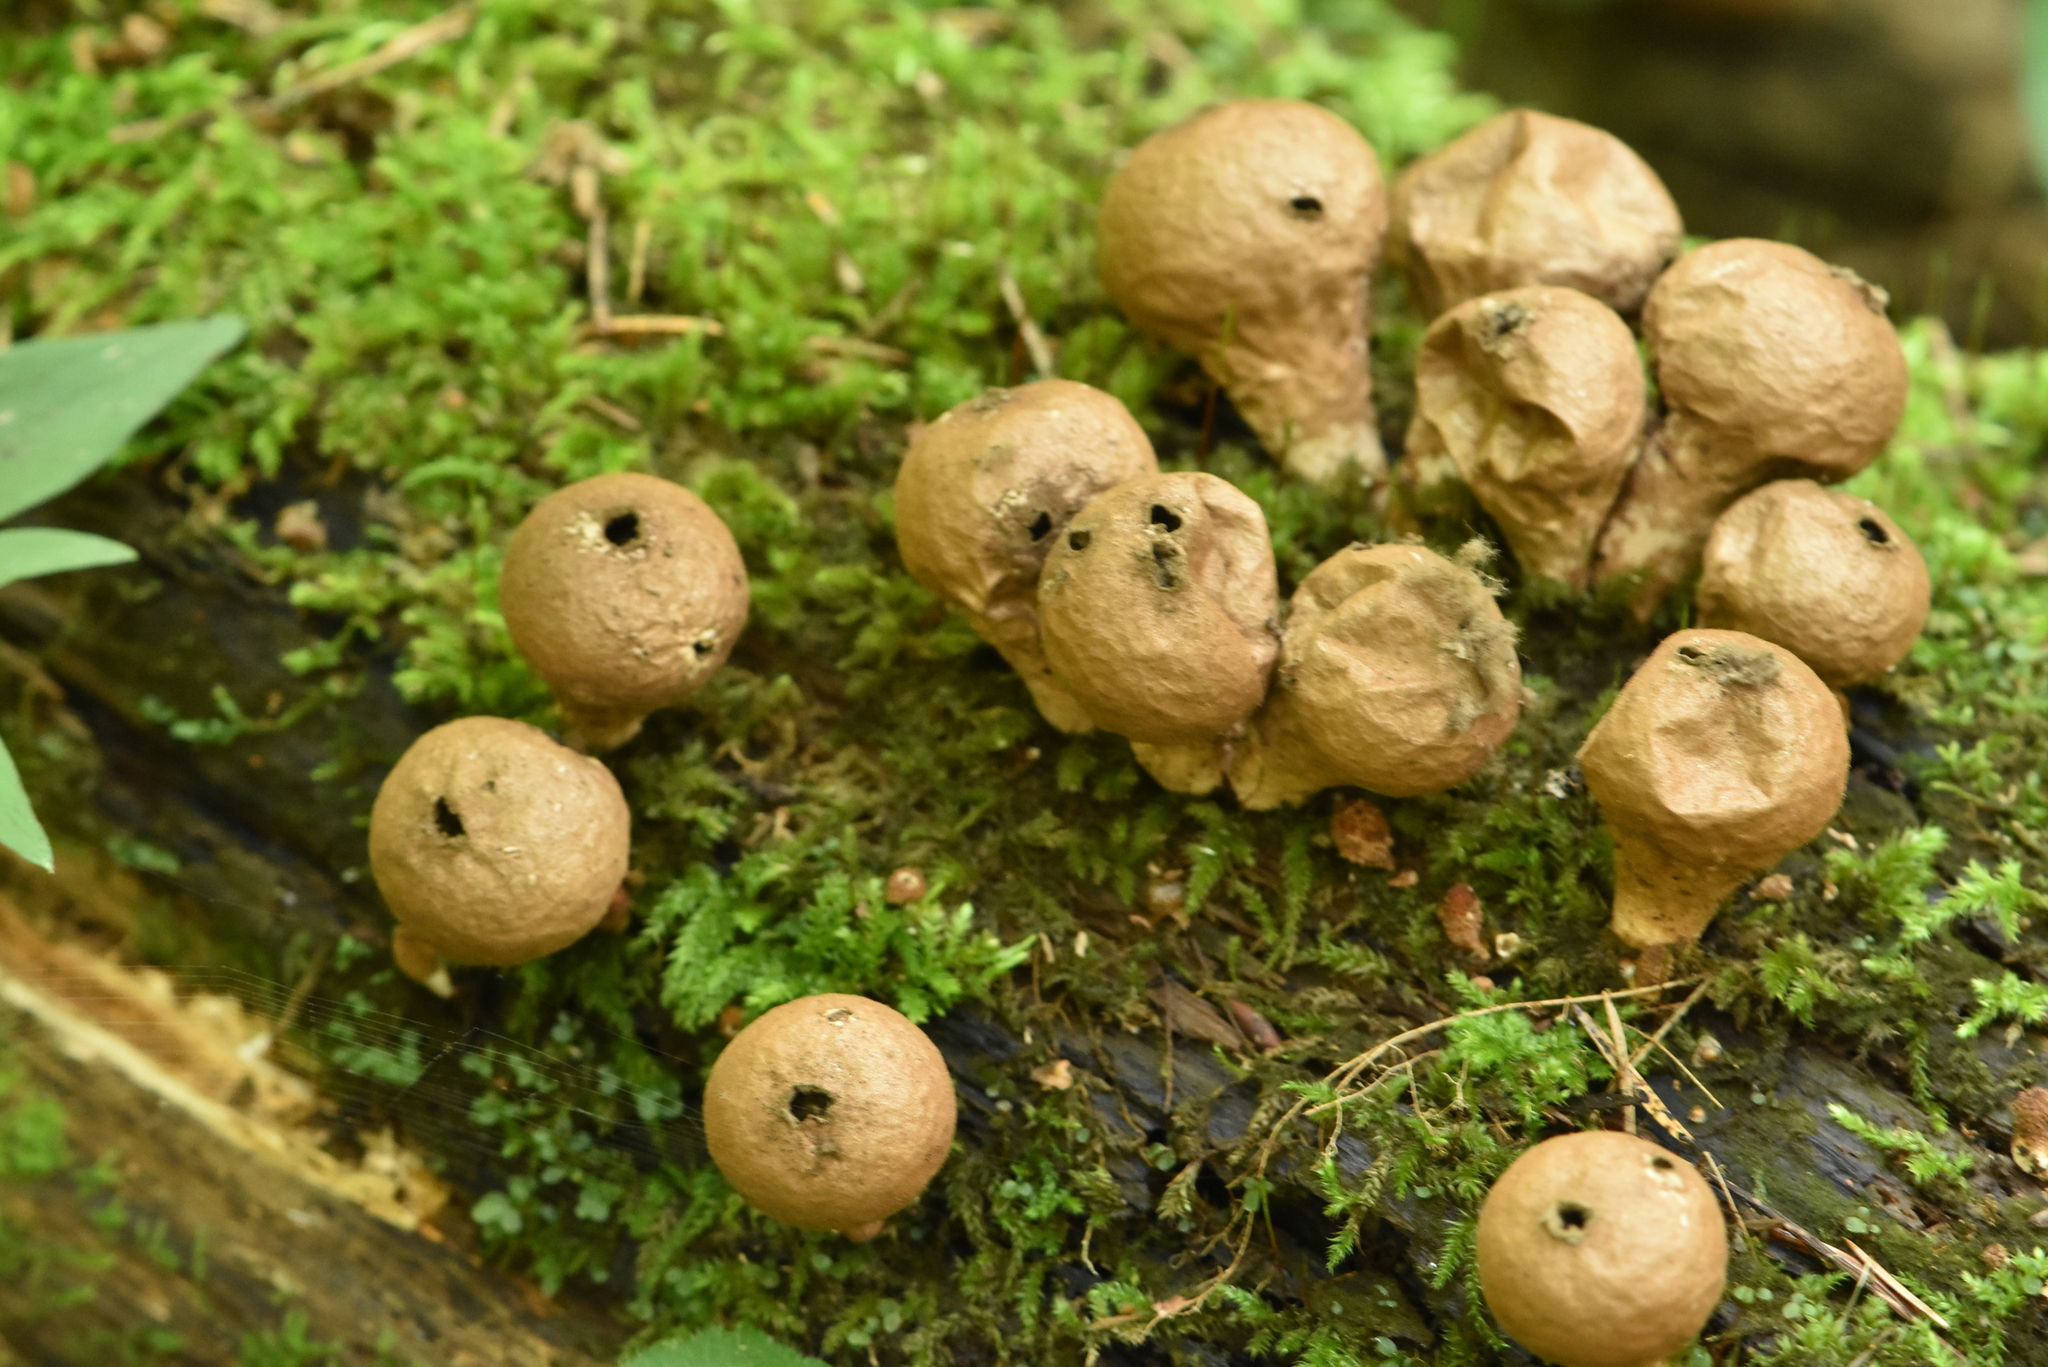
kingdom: Fungi
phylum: Basidiomycota
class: Agaricomycetes
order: Agaricales
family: Lycoperdaceae
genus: Apioperdon
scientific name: Apioperdon pyriforme
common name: Pear-shaped puffball
